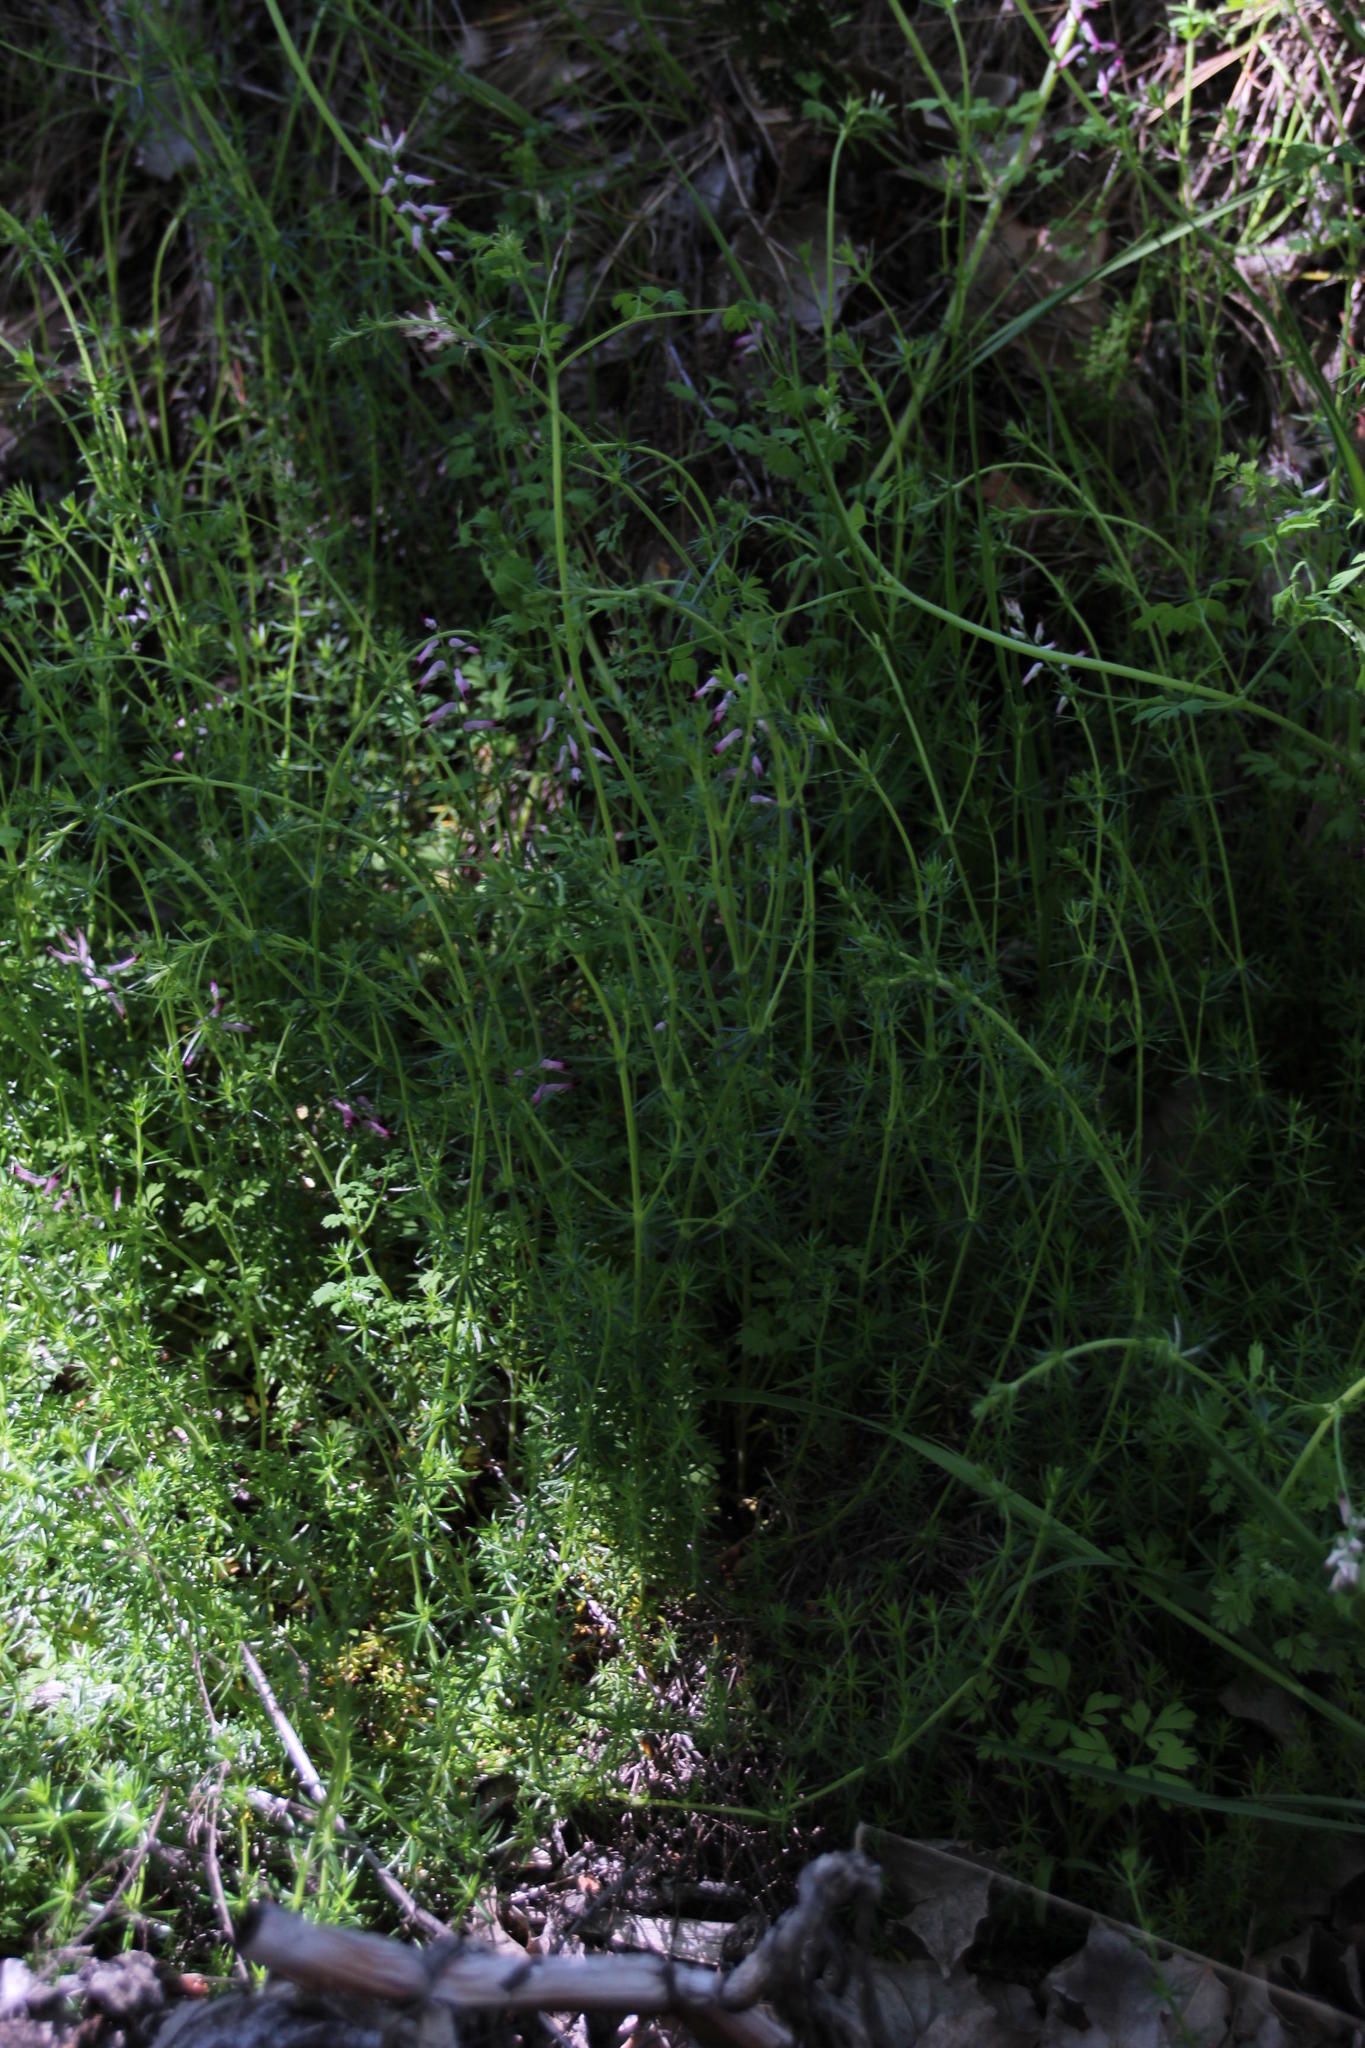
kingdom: Plantae
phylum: Tracheophyta
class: Magnoliopsida
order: Ranunculales
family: Papaveraceae
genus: Fumaria
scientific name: Fumaria muralis
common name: Common ramping-fumitory
